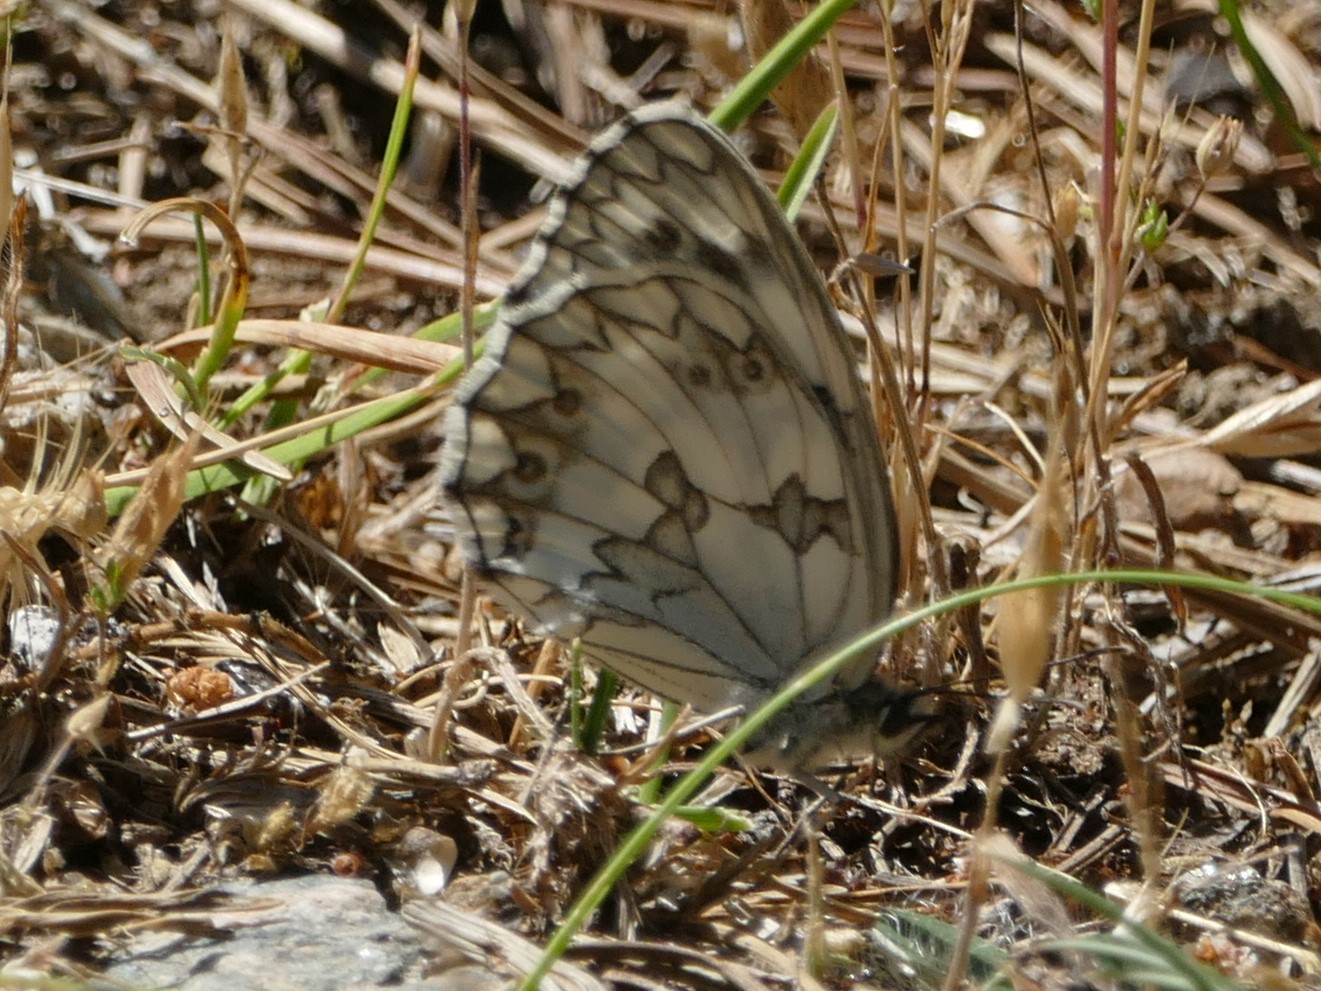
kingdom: Animalia
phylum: Arthropoda
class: Insecta
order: Lepidoptera
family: Nymphalidae
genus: Melanargia
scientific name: Melanargia lachesis
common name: Iberian marbled white
